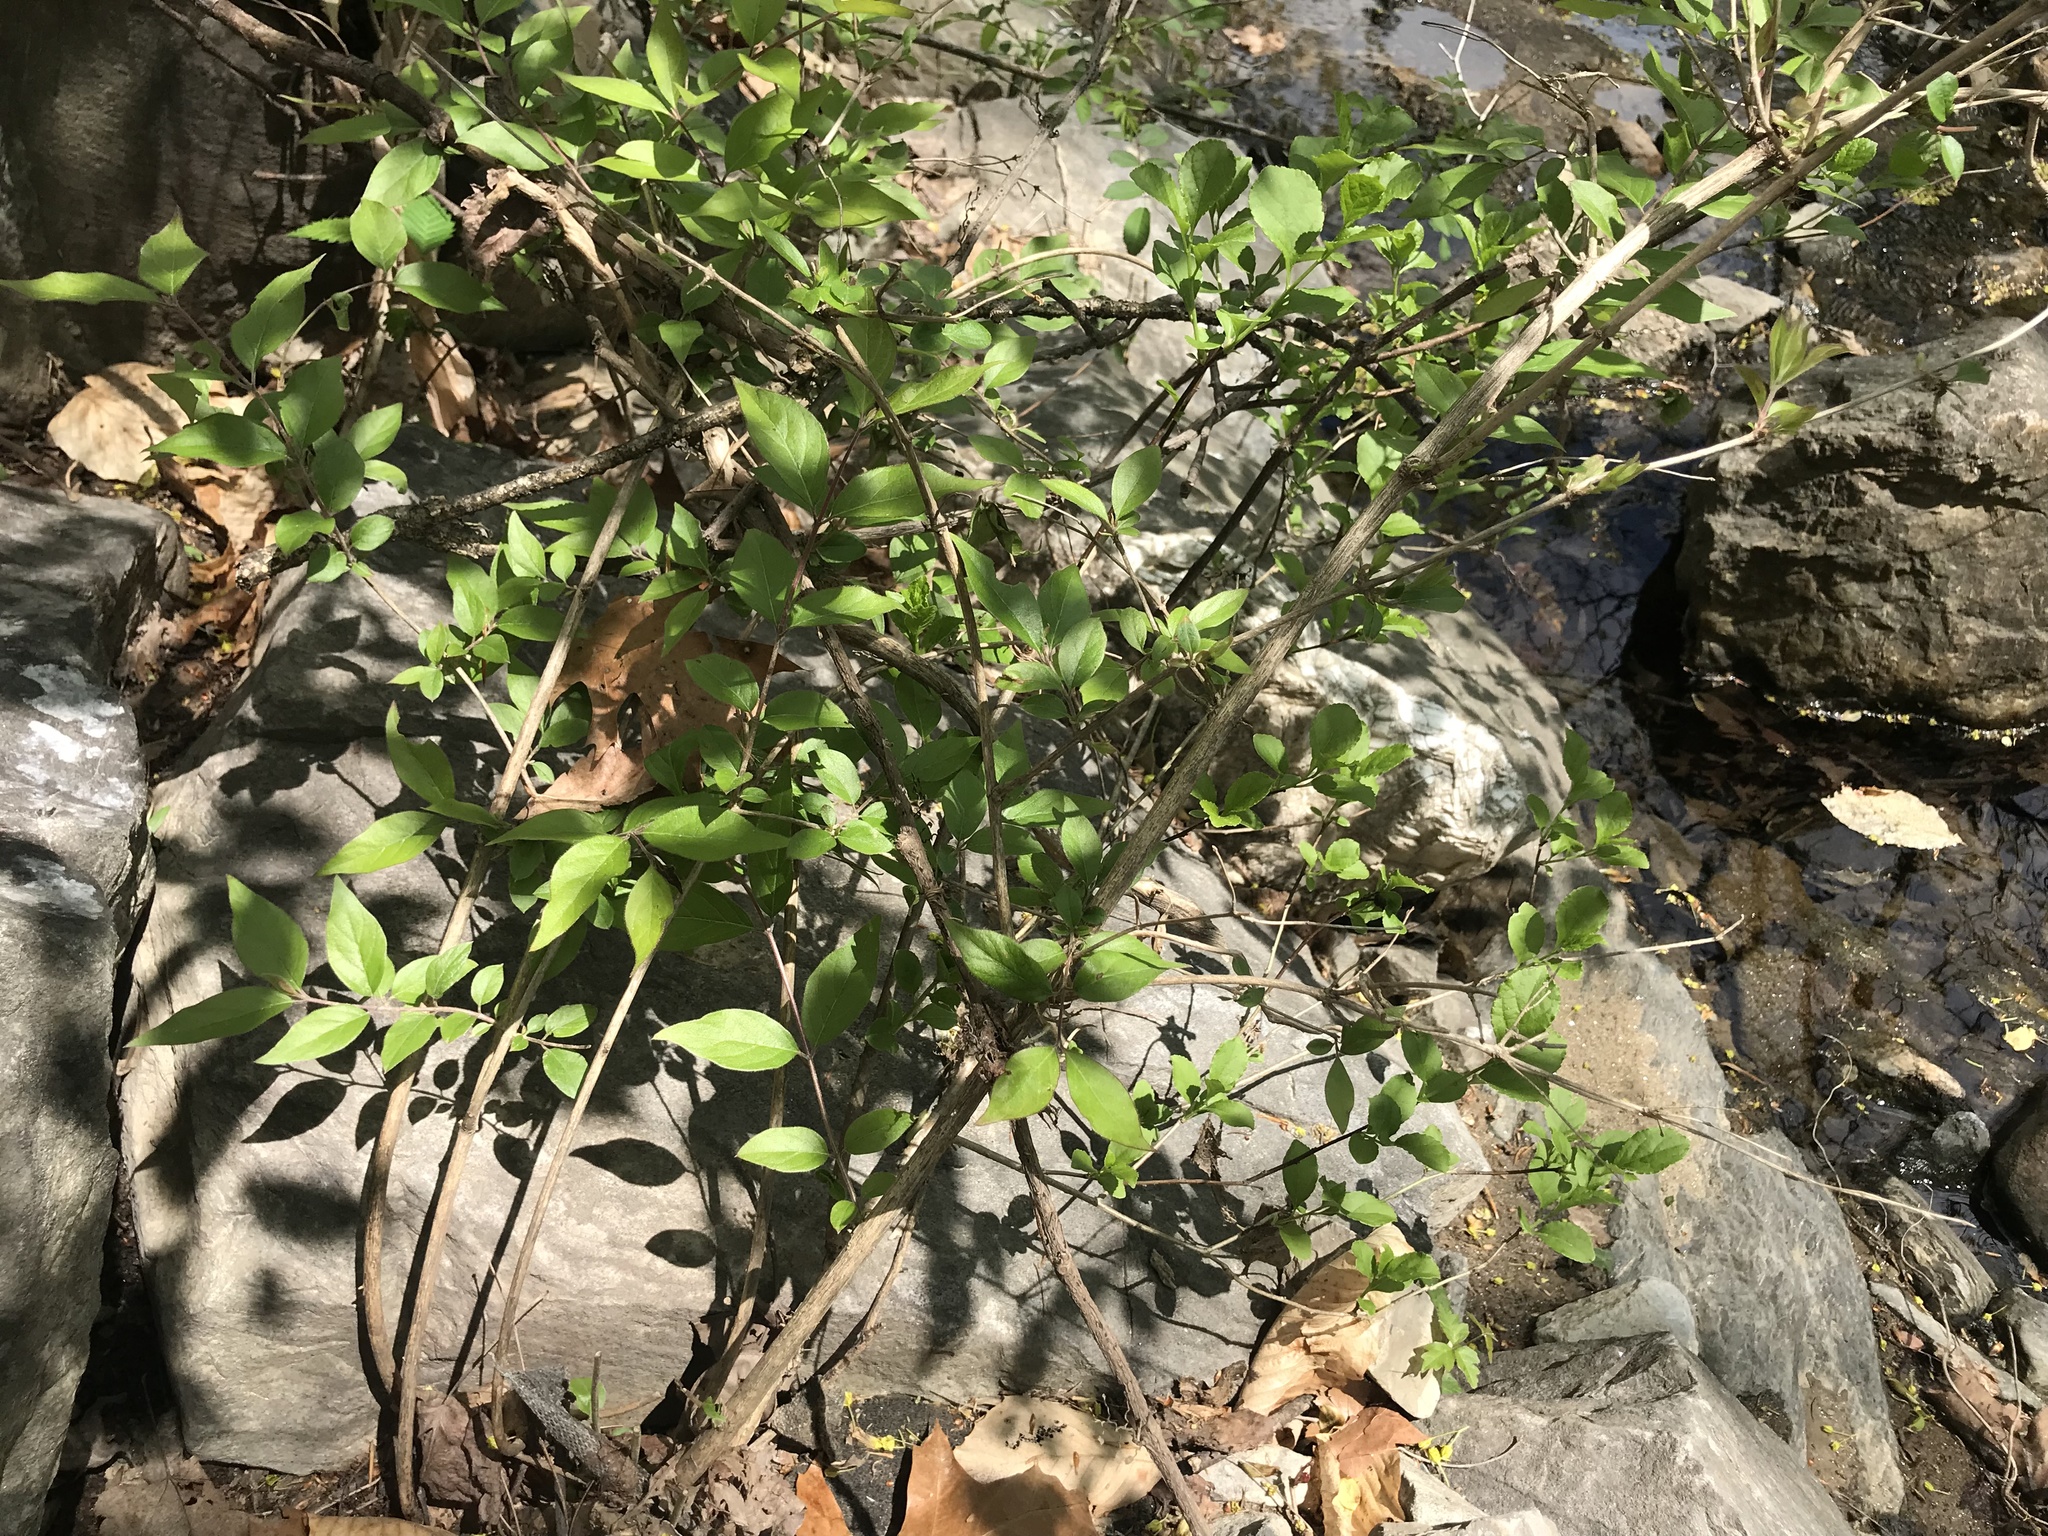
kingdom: Plantae
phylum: Tracheophyta
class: Magnoliopsida
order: Dipsacales
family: Caprifoliaceae
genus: Lonicera
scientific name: Lonicera maackii
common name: Amur honeysuckle
